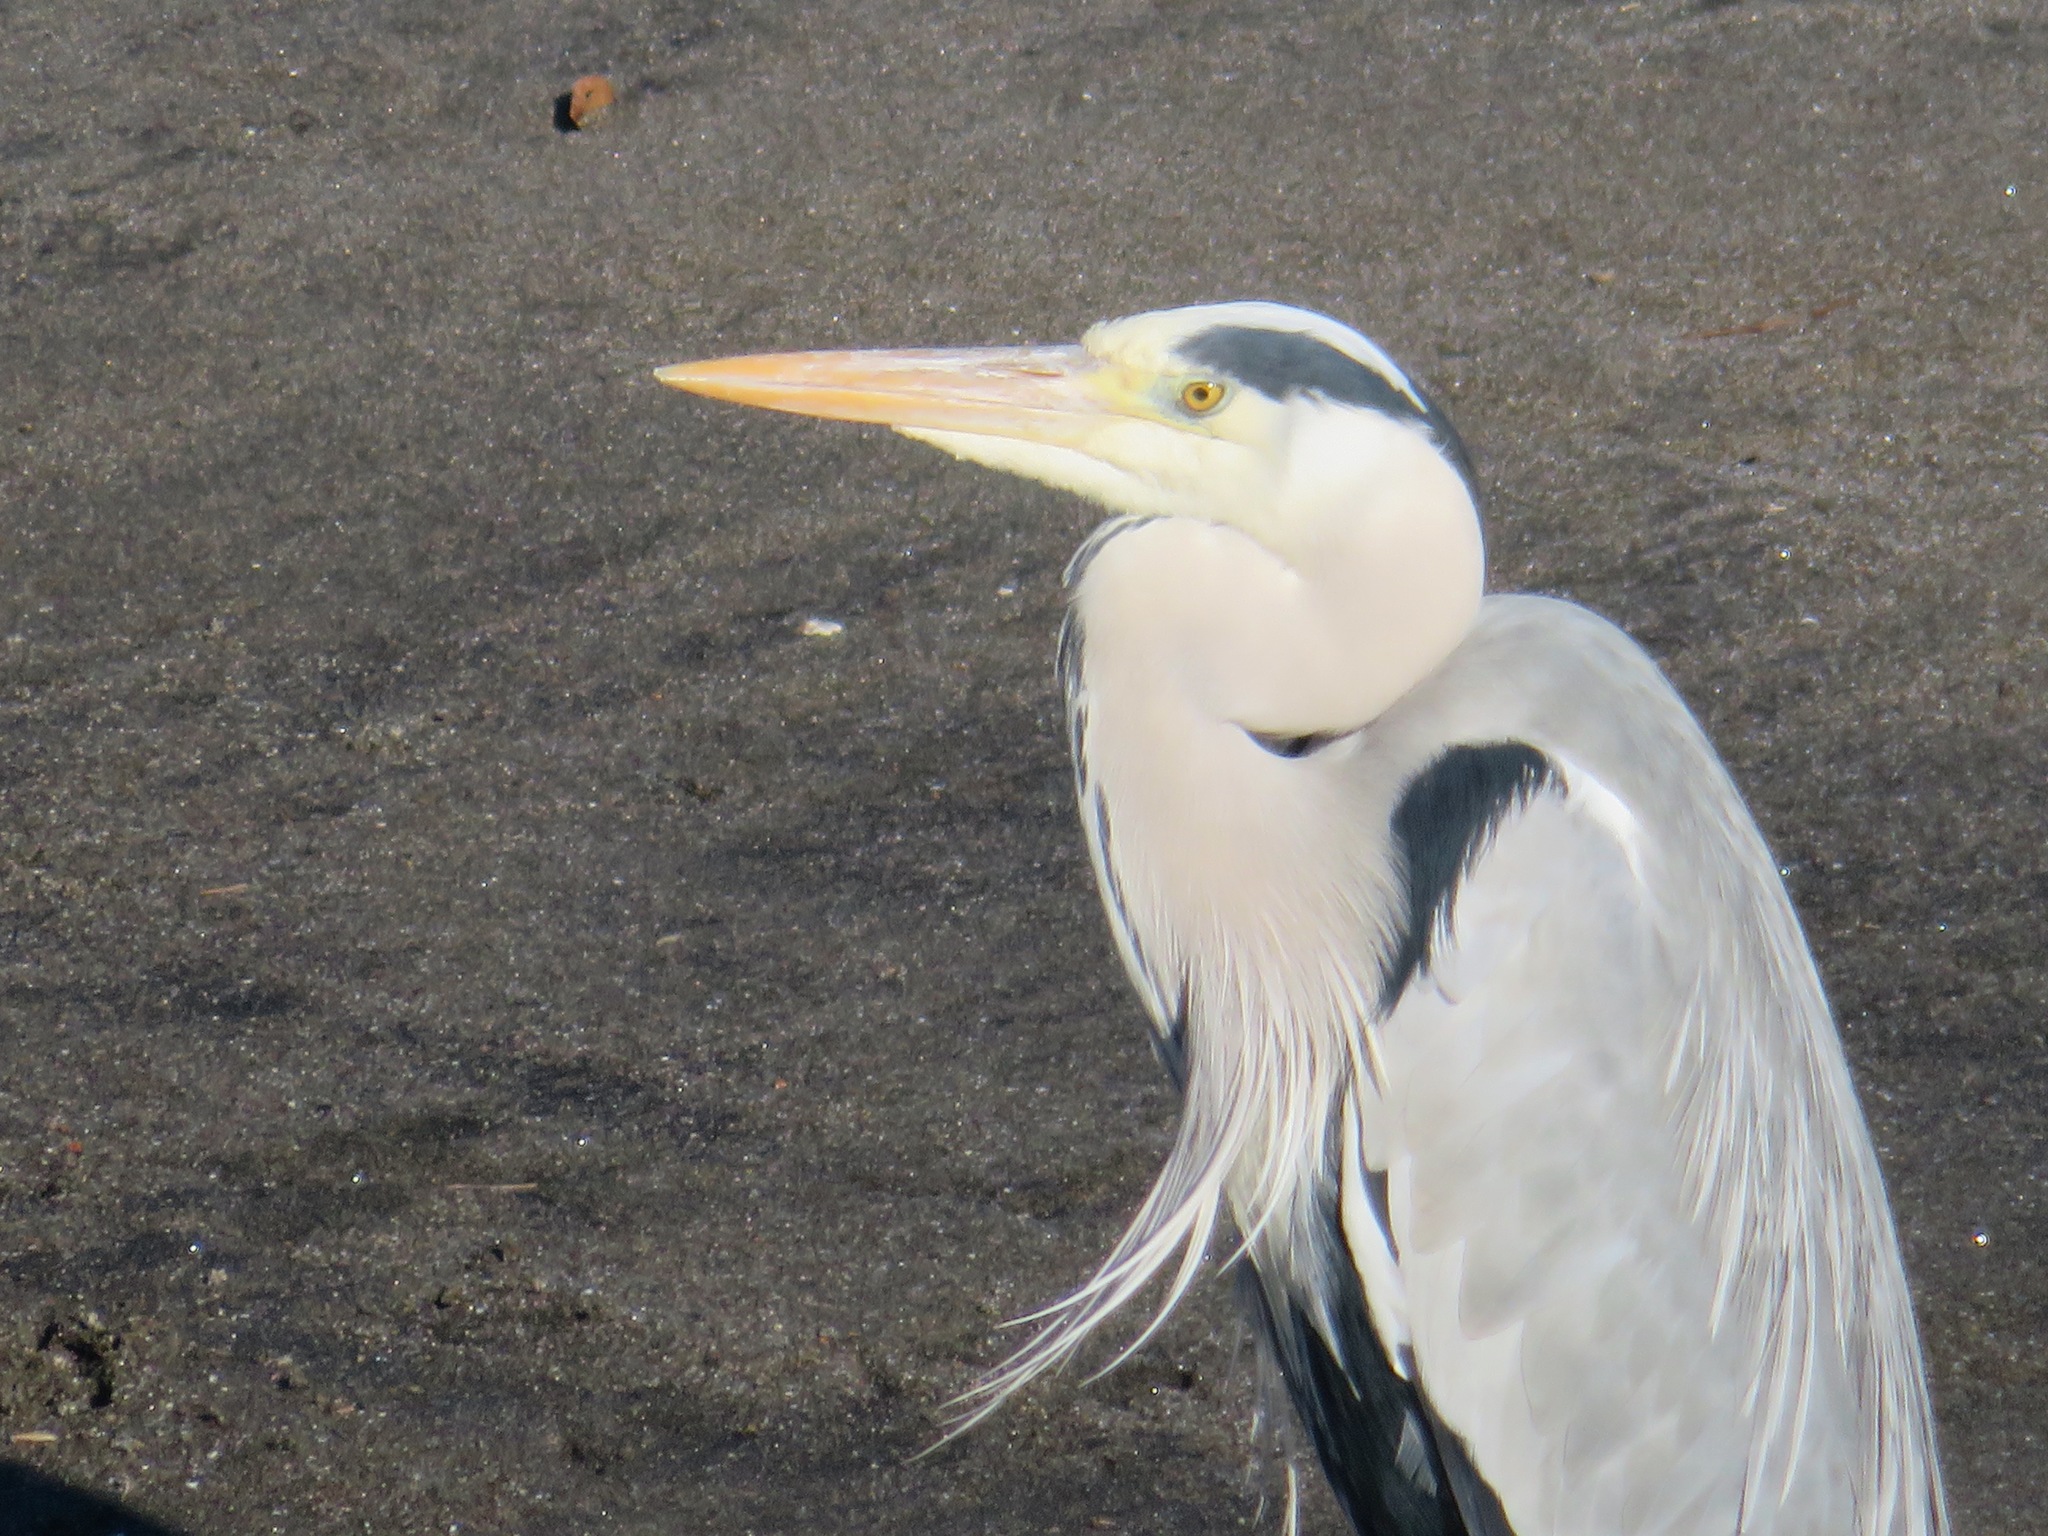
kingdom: Animalia
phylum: Chordata
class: Aves
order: Pelecaniformes
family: Ardeidae
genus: Ardea
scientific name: Ardea cinerea
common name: Grey heron
